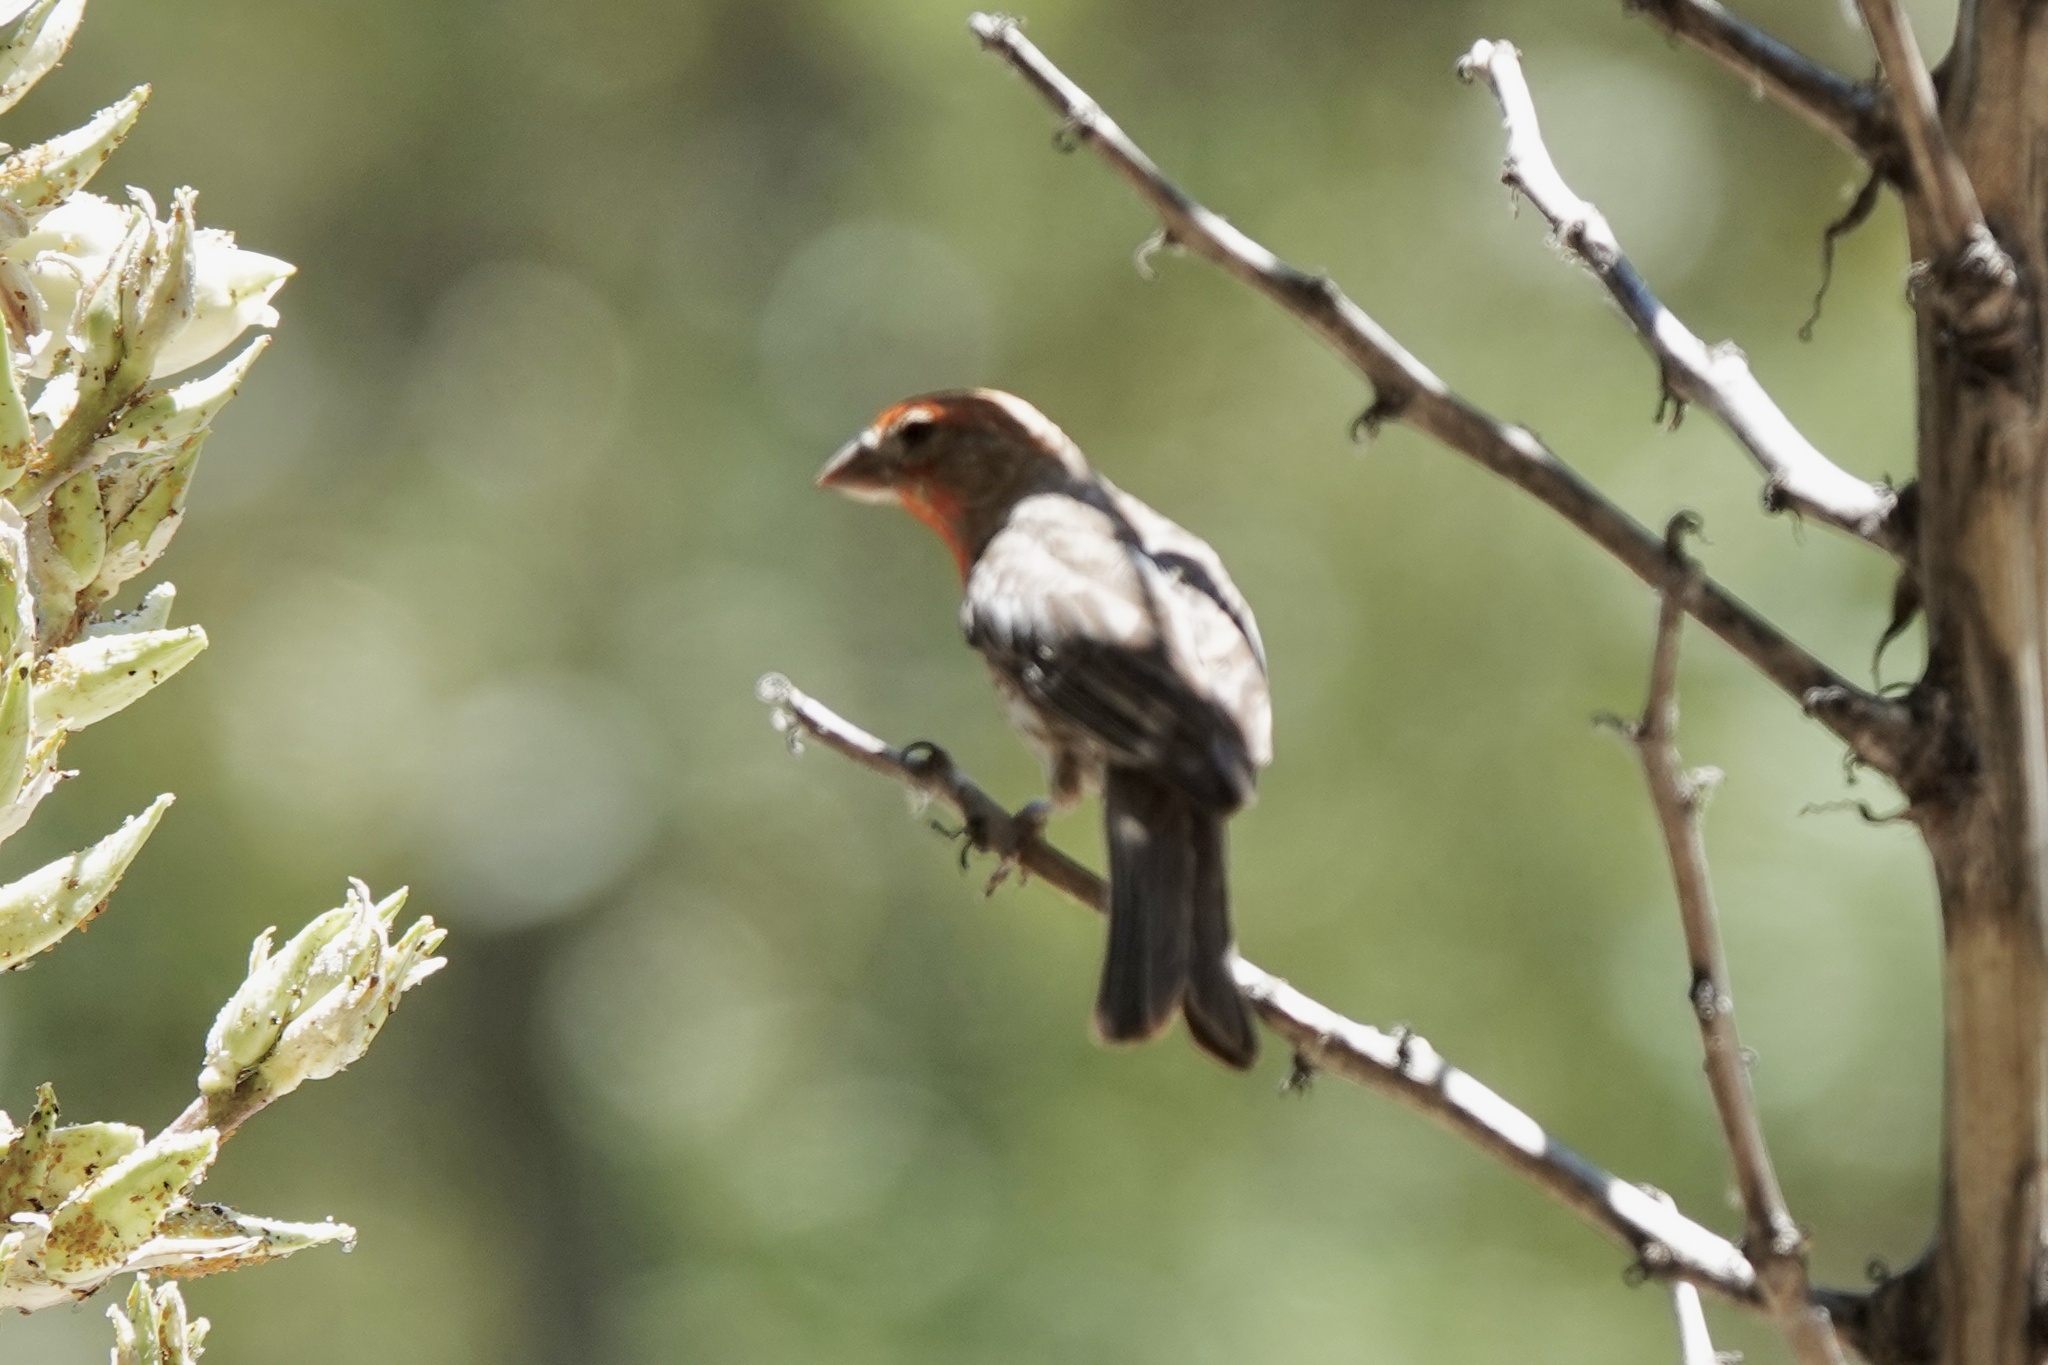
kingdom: Animalia
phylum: Chordata
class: Aves
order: Passeriformes
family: Fringillidae
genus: Haemorhous
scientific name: Haemorhous mexicanus
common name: House finch
